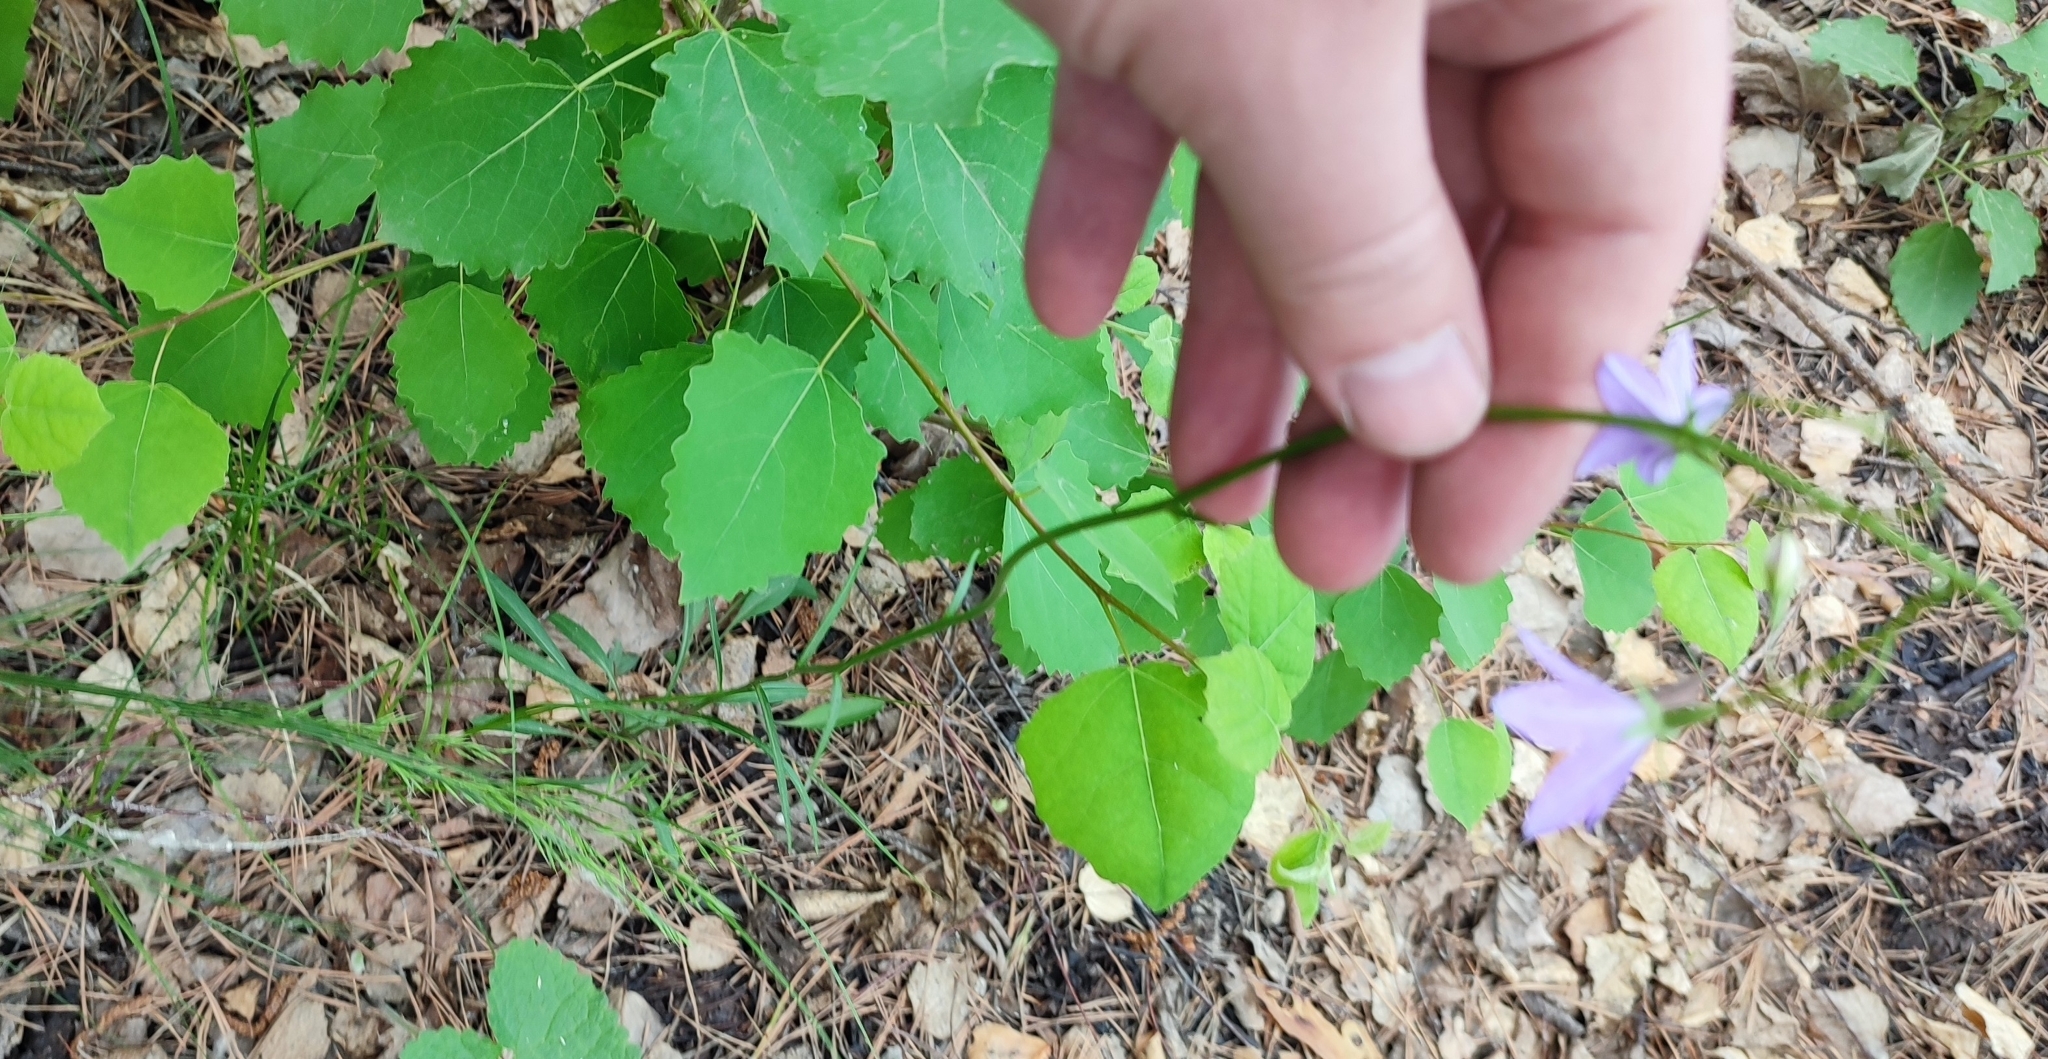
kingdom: Plantae
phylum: Tracheophyta
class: Magnoliopsida
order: Asterales
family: Campanulaceae
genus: Campanula
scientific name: Campanula stevenii
